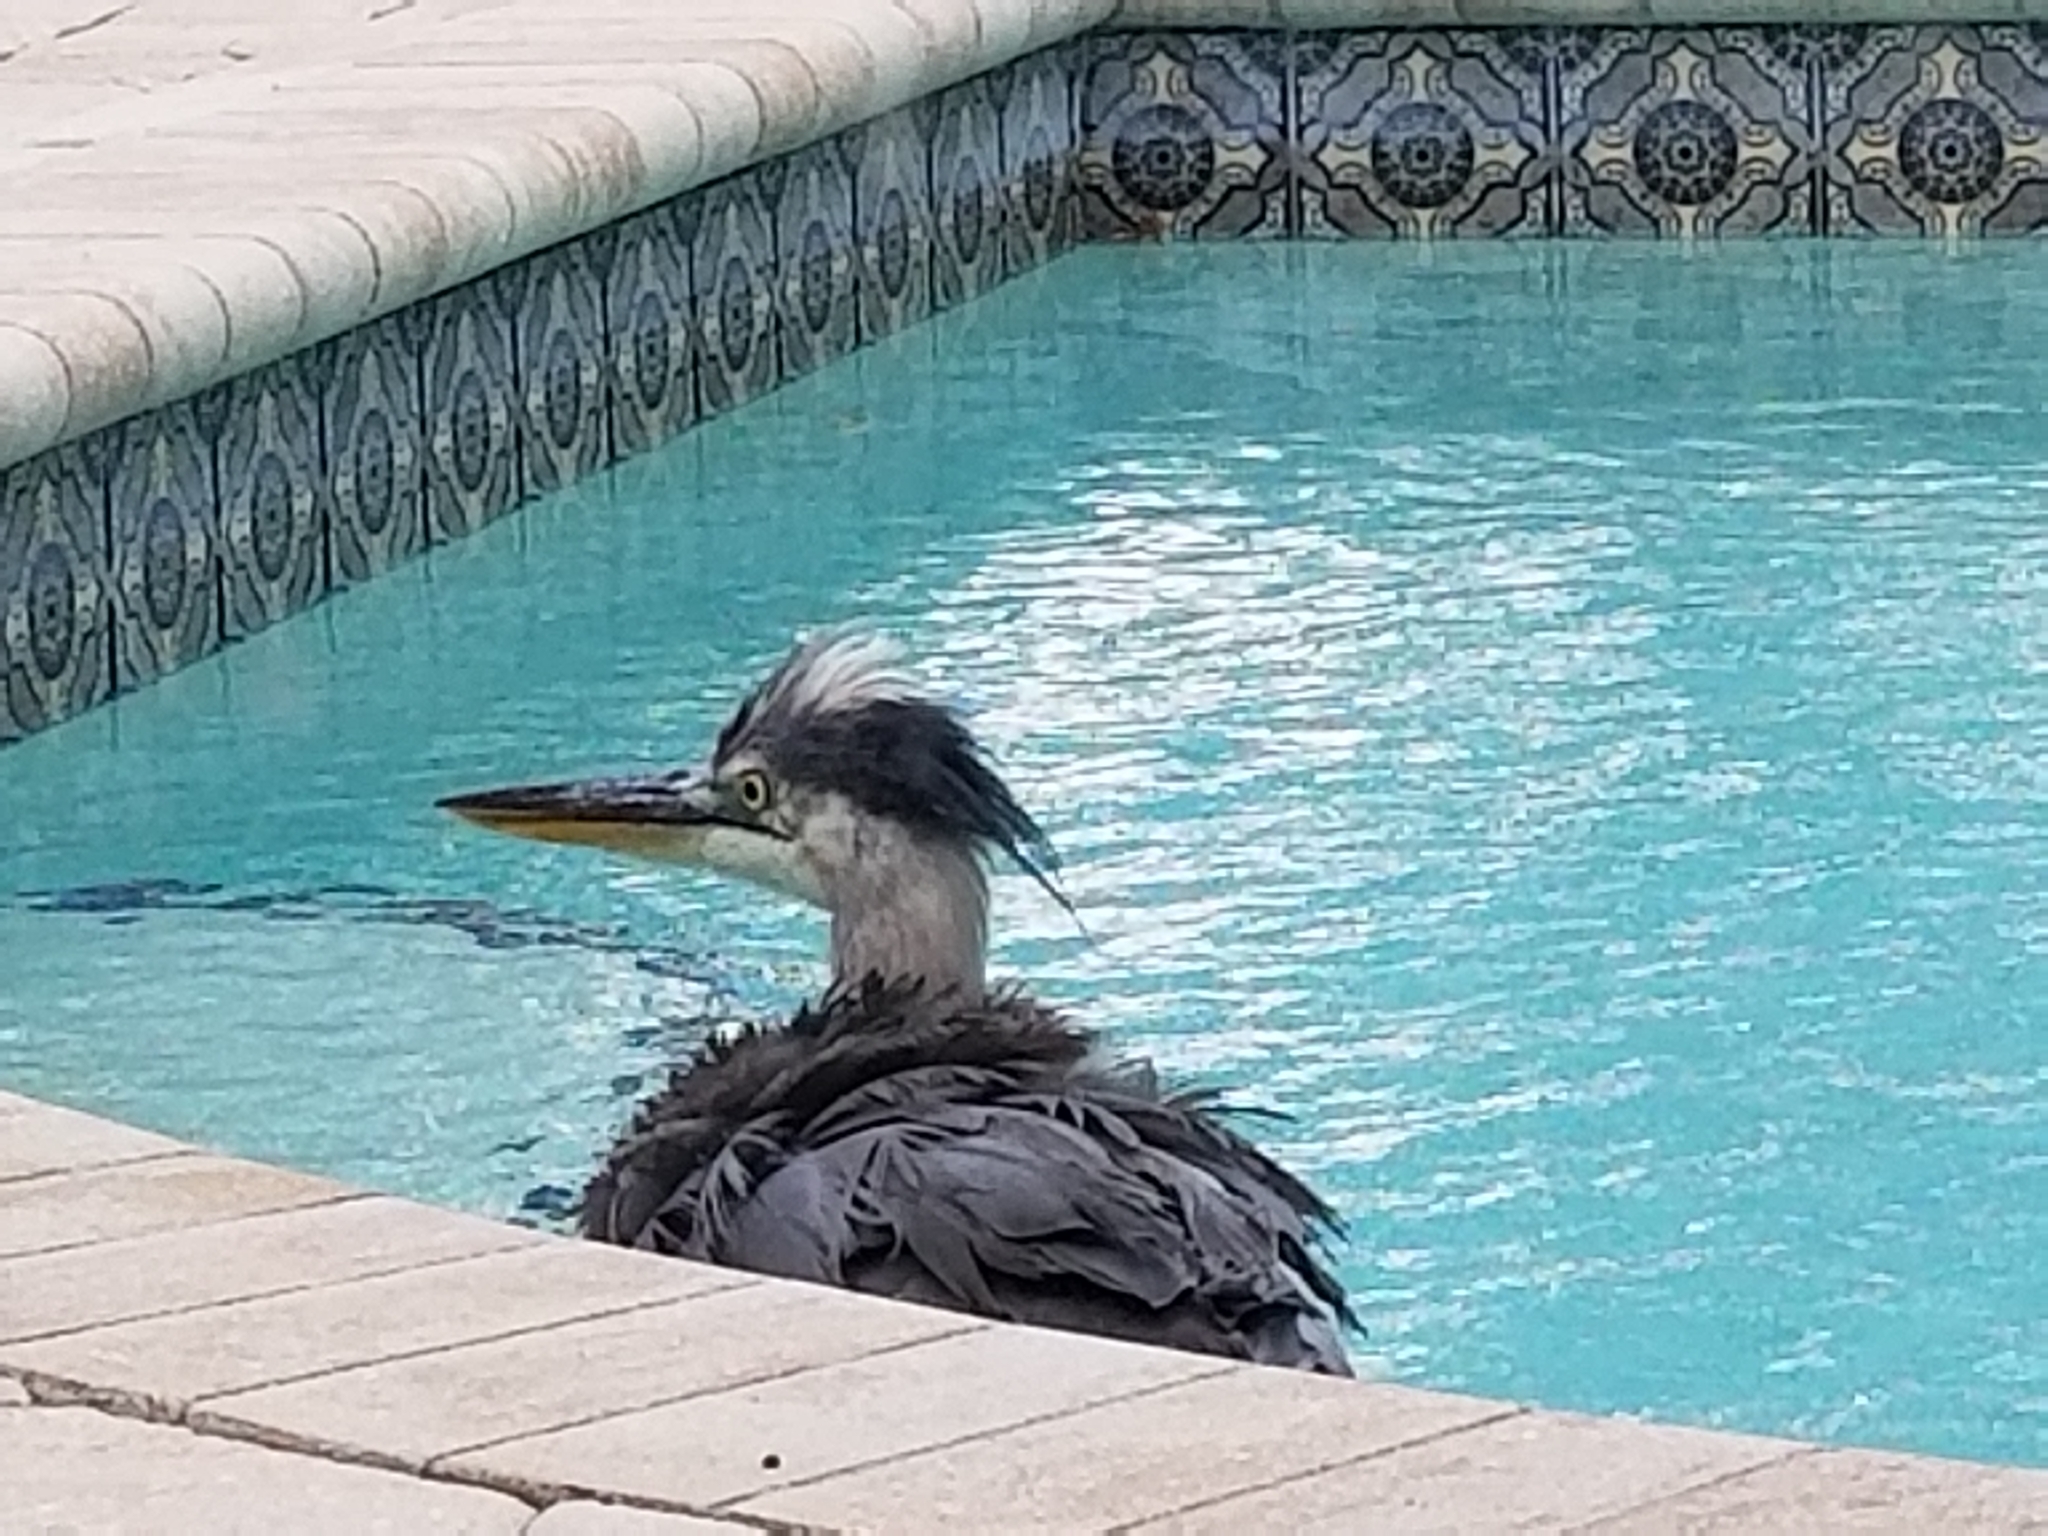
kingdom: Animalia
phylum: Chordata
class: Aves
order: Pelecaniformes
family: Ardeidae
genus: Ardea
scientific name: Ardea herodias
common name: Great blue heron
